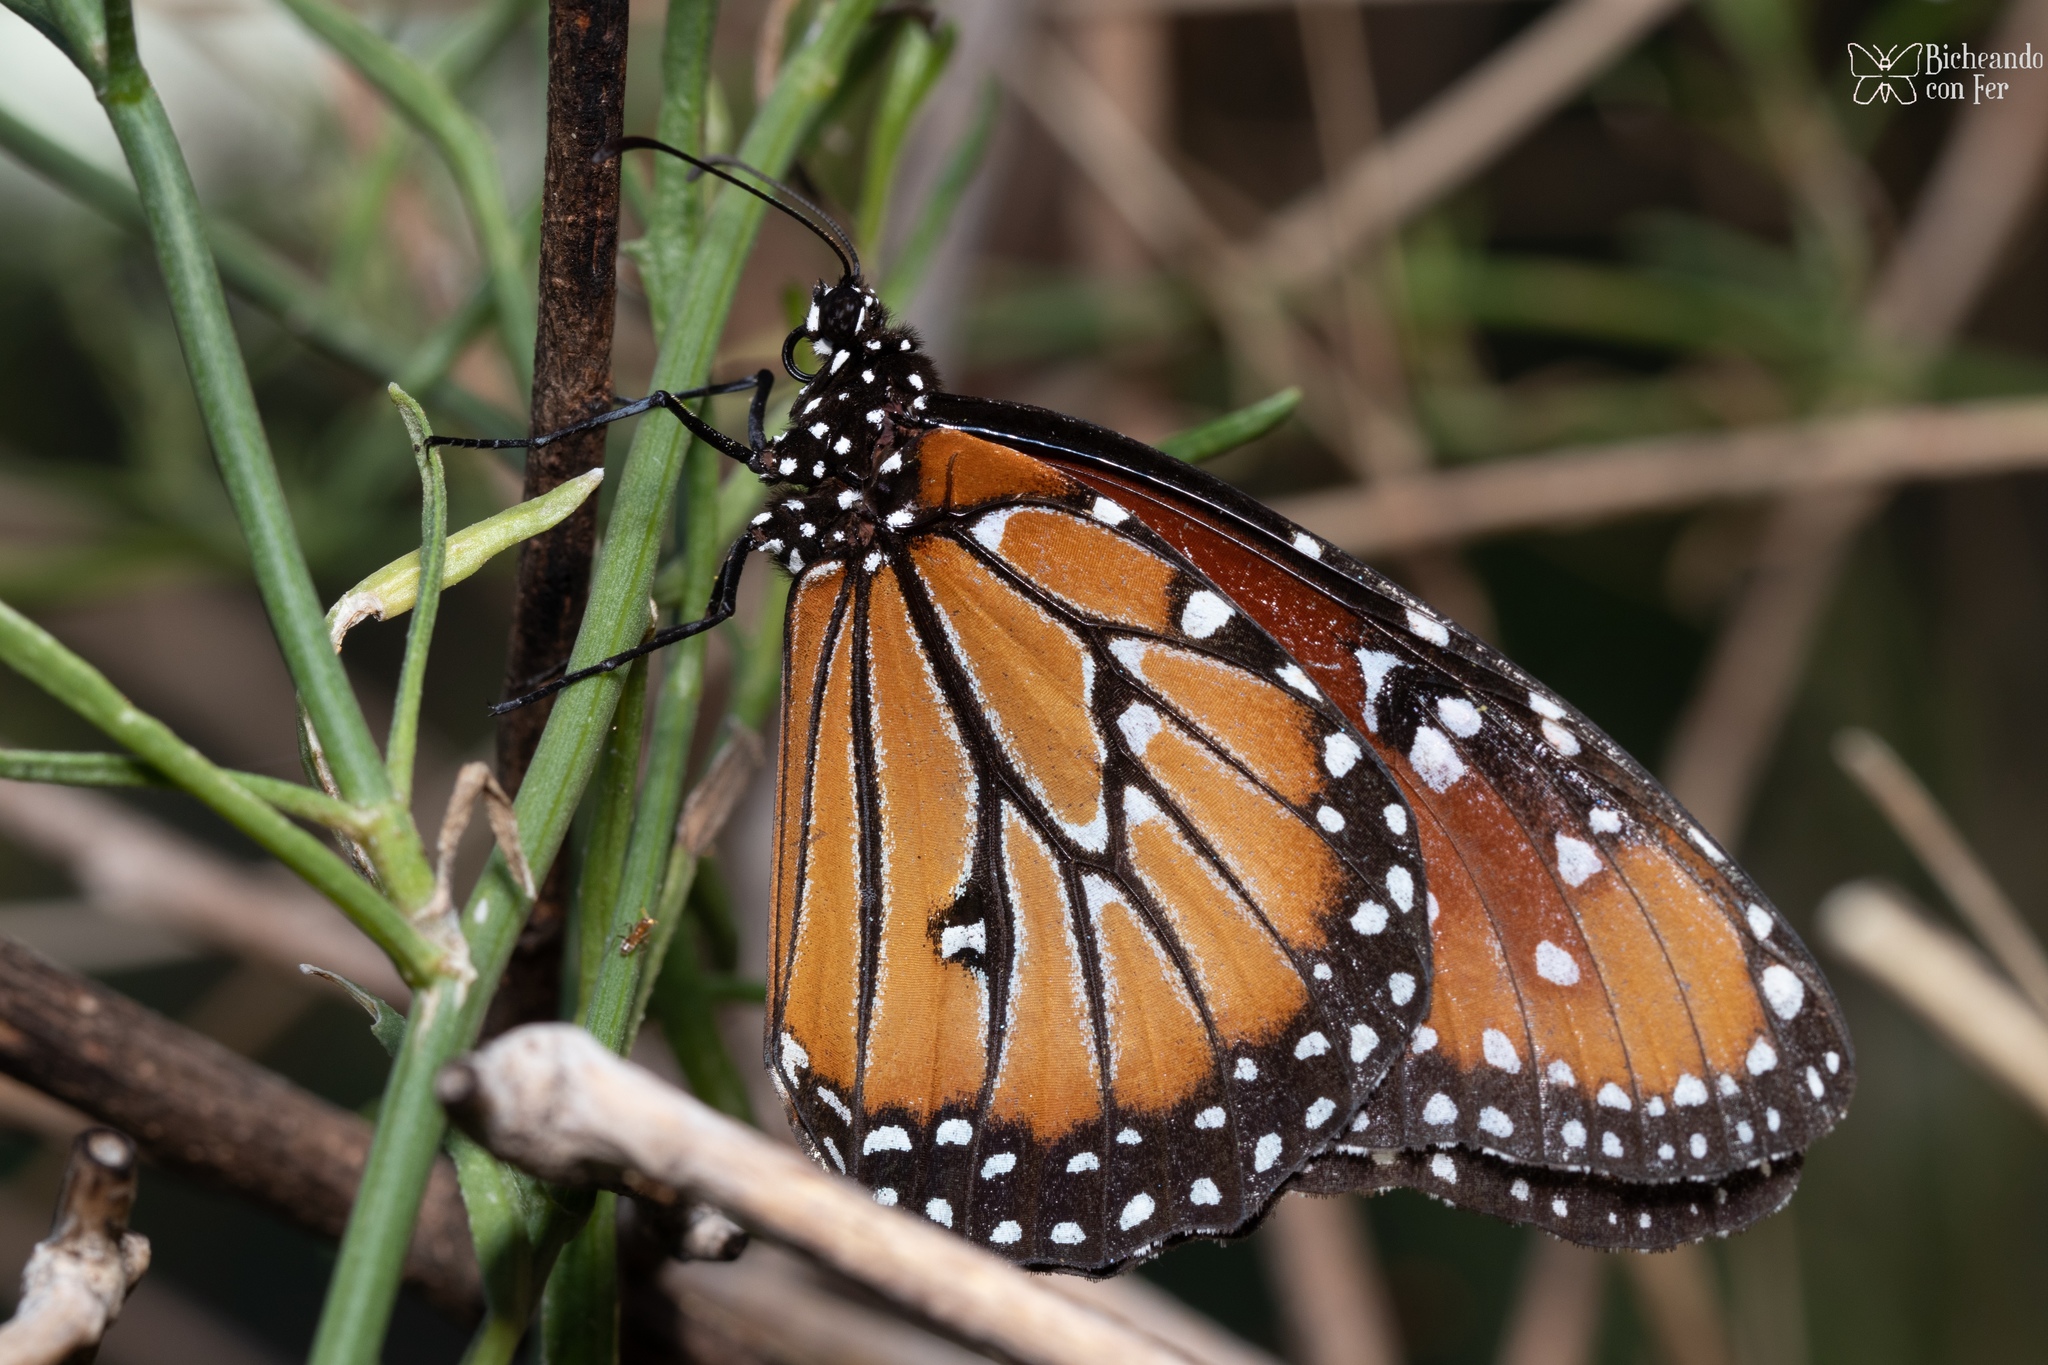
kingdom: Animalia
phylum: Arthropoda
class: Insecta
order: Lepidoptera
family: Nymphalidae
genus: Danaus
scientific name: Danaus gilippus
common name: Queen
